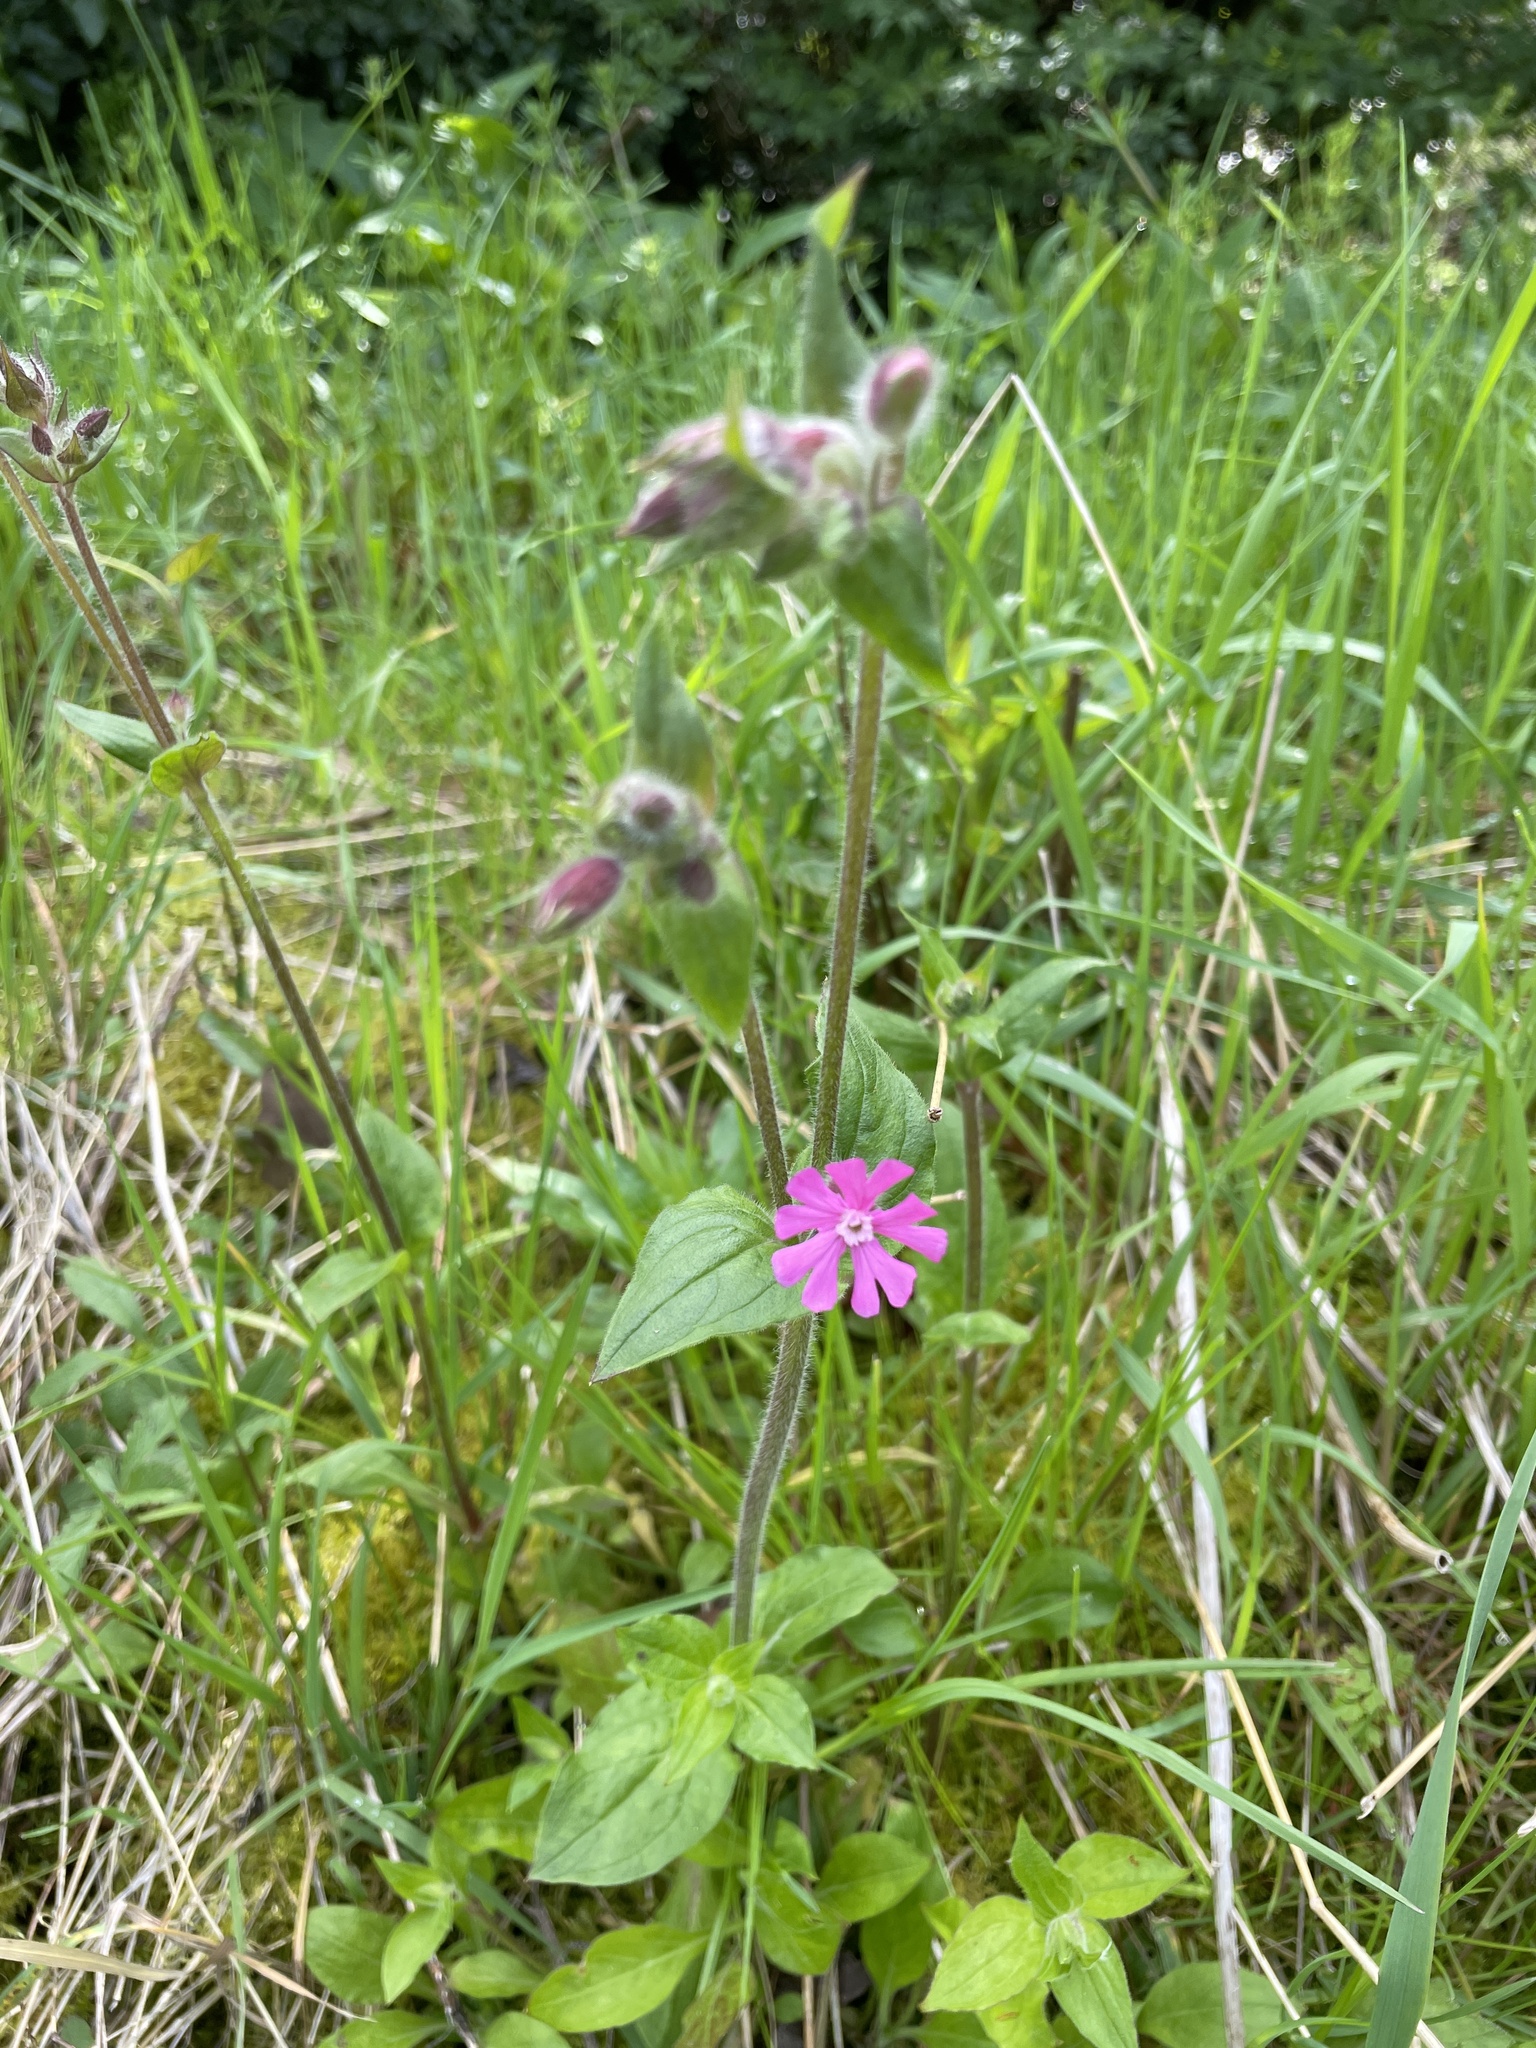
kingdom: Plantae
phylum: Tracheophyta
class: Magnoliopsida
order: Caryophyllales
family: Caryophyllaceae
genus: Silene
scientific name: Silene dioica
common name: Red campion
